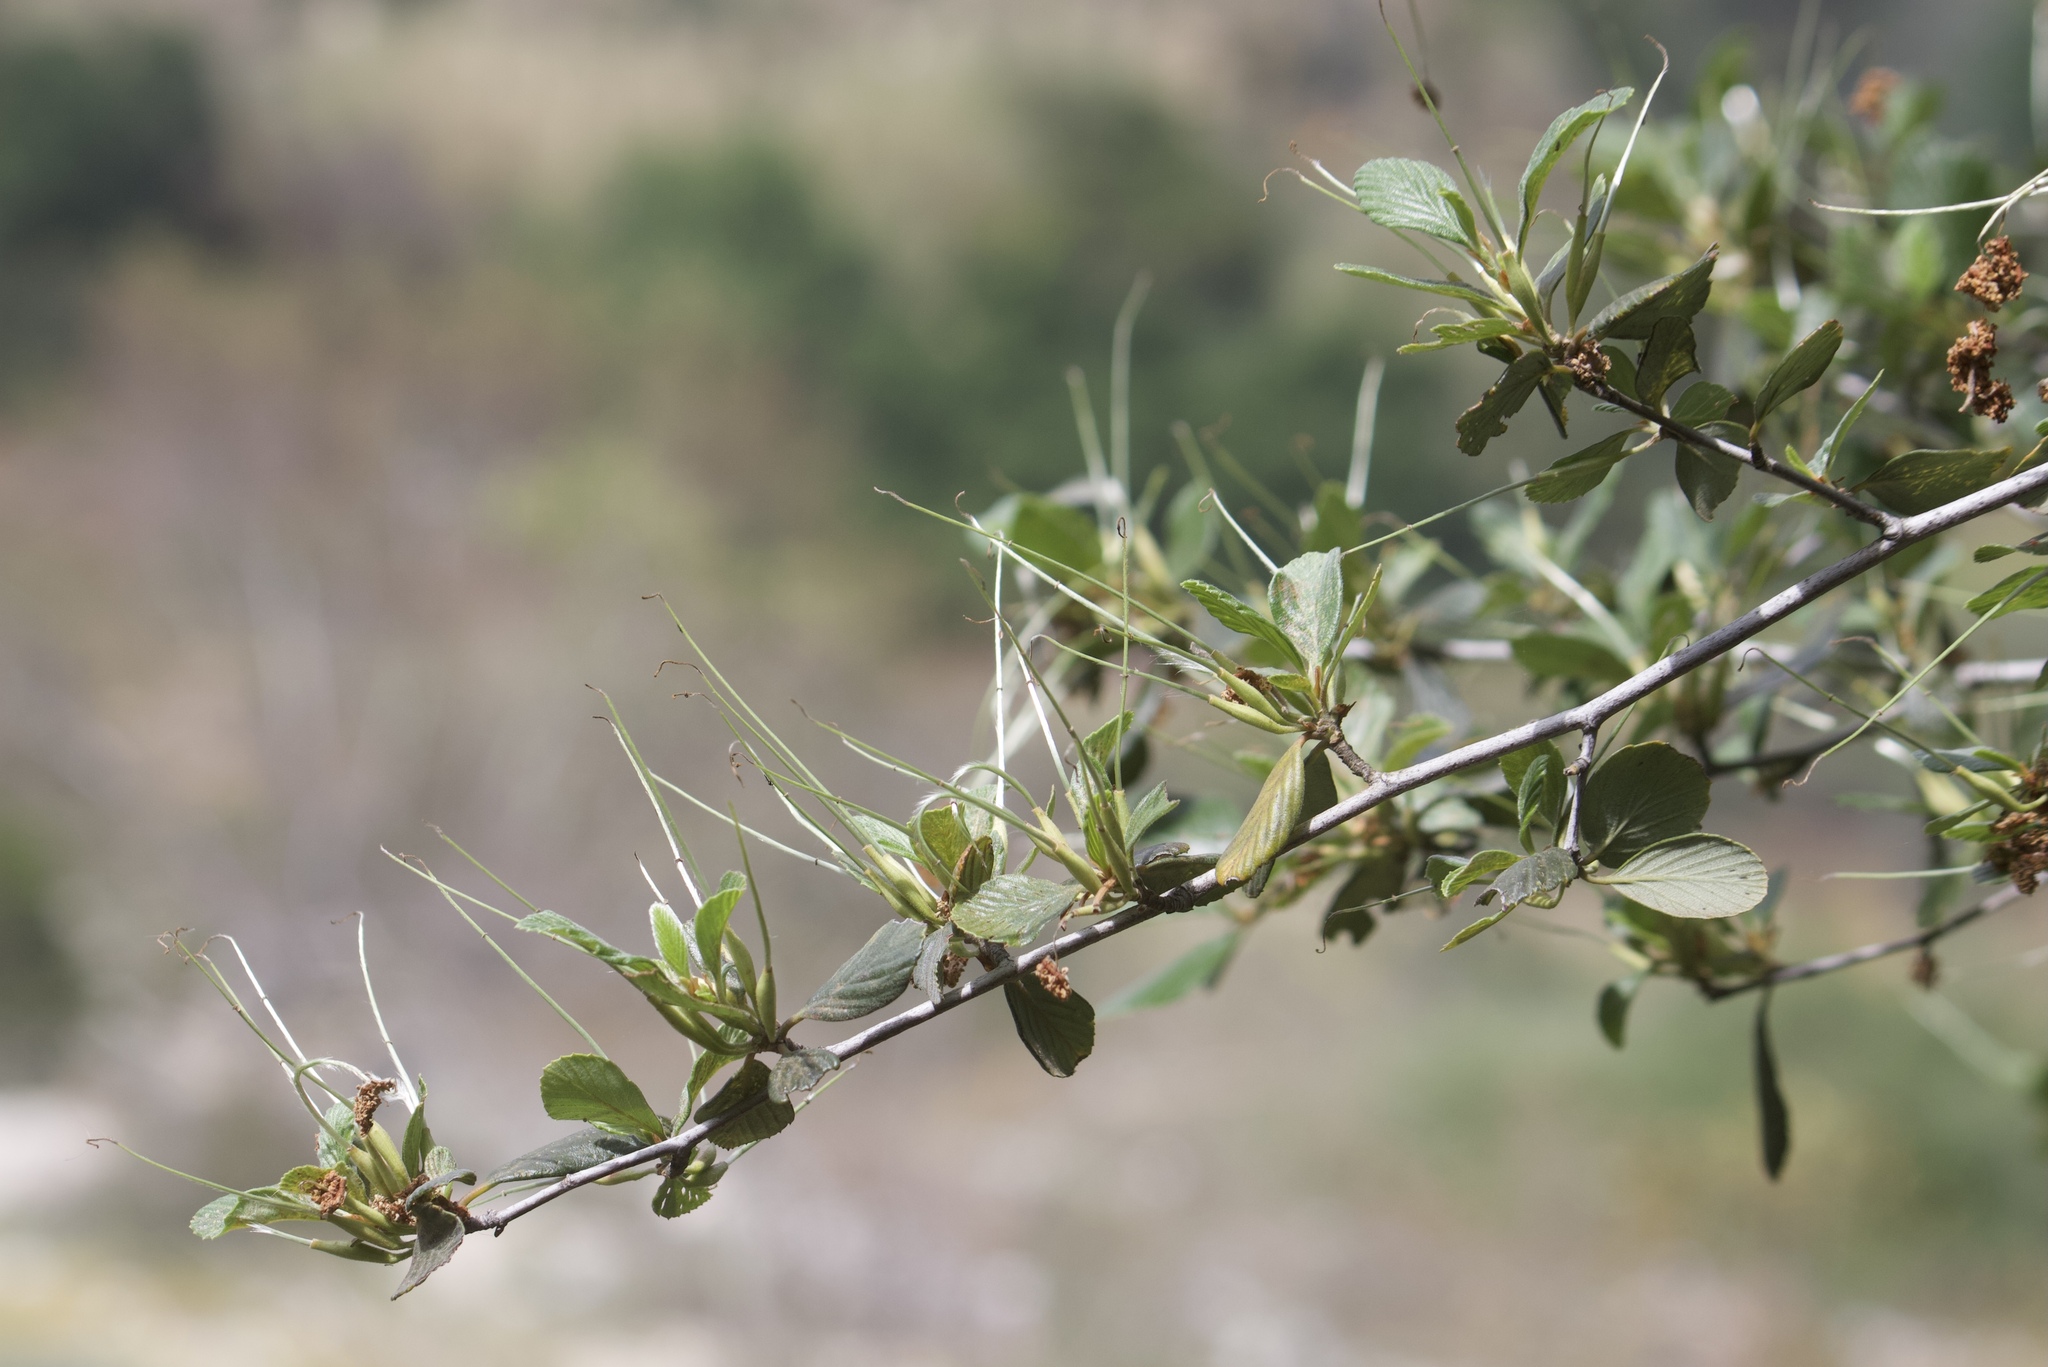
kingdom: Plantae
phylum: Tracheophyta
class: Magnoliopsida
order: Rosales
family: Rosaceae
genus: Cercocarpus
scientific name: Cercocarpus betuloides
